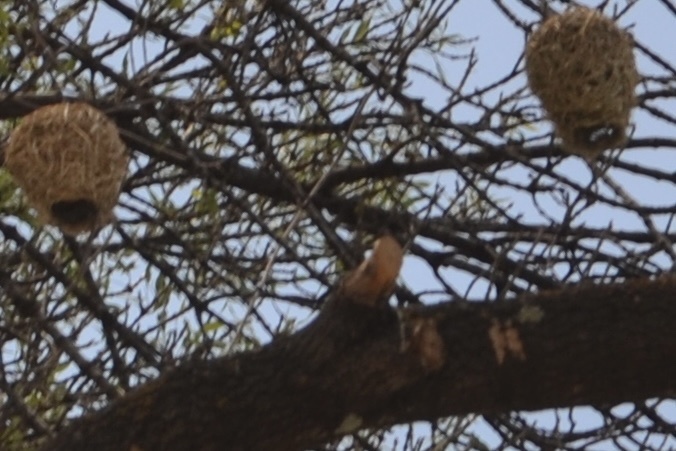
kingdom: Animalia
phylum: Chordata
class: Aves
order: Passeriformes
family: Ploceidae
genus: Ploceus
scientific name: Ploceus velatus
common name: Southern masked weaver
